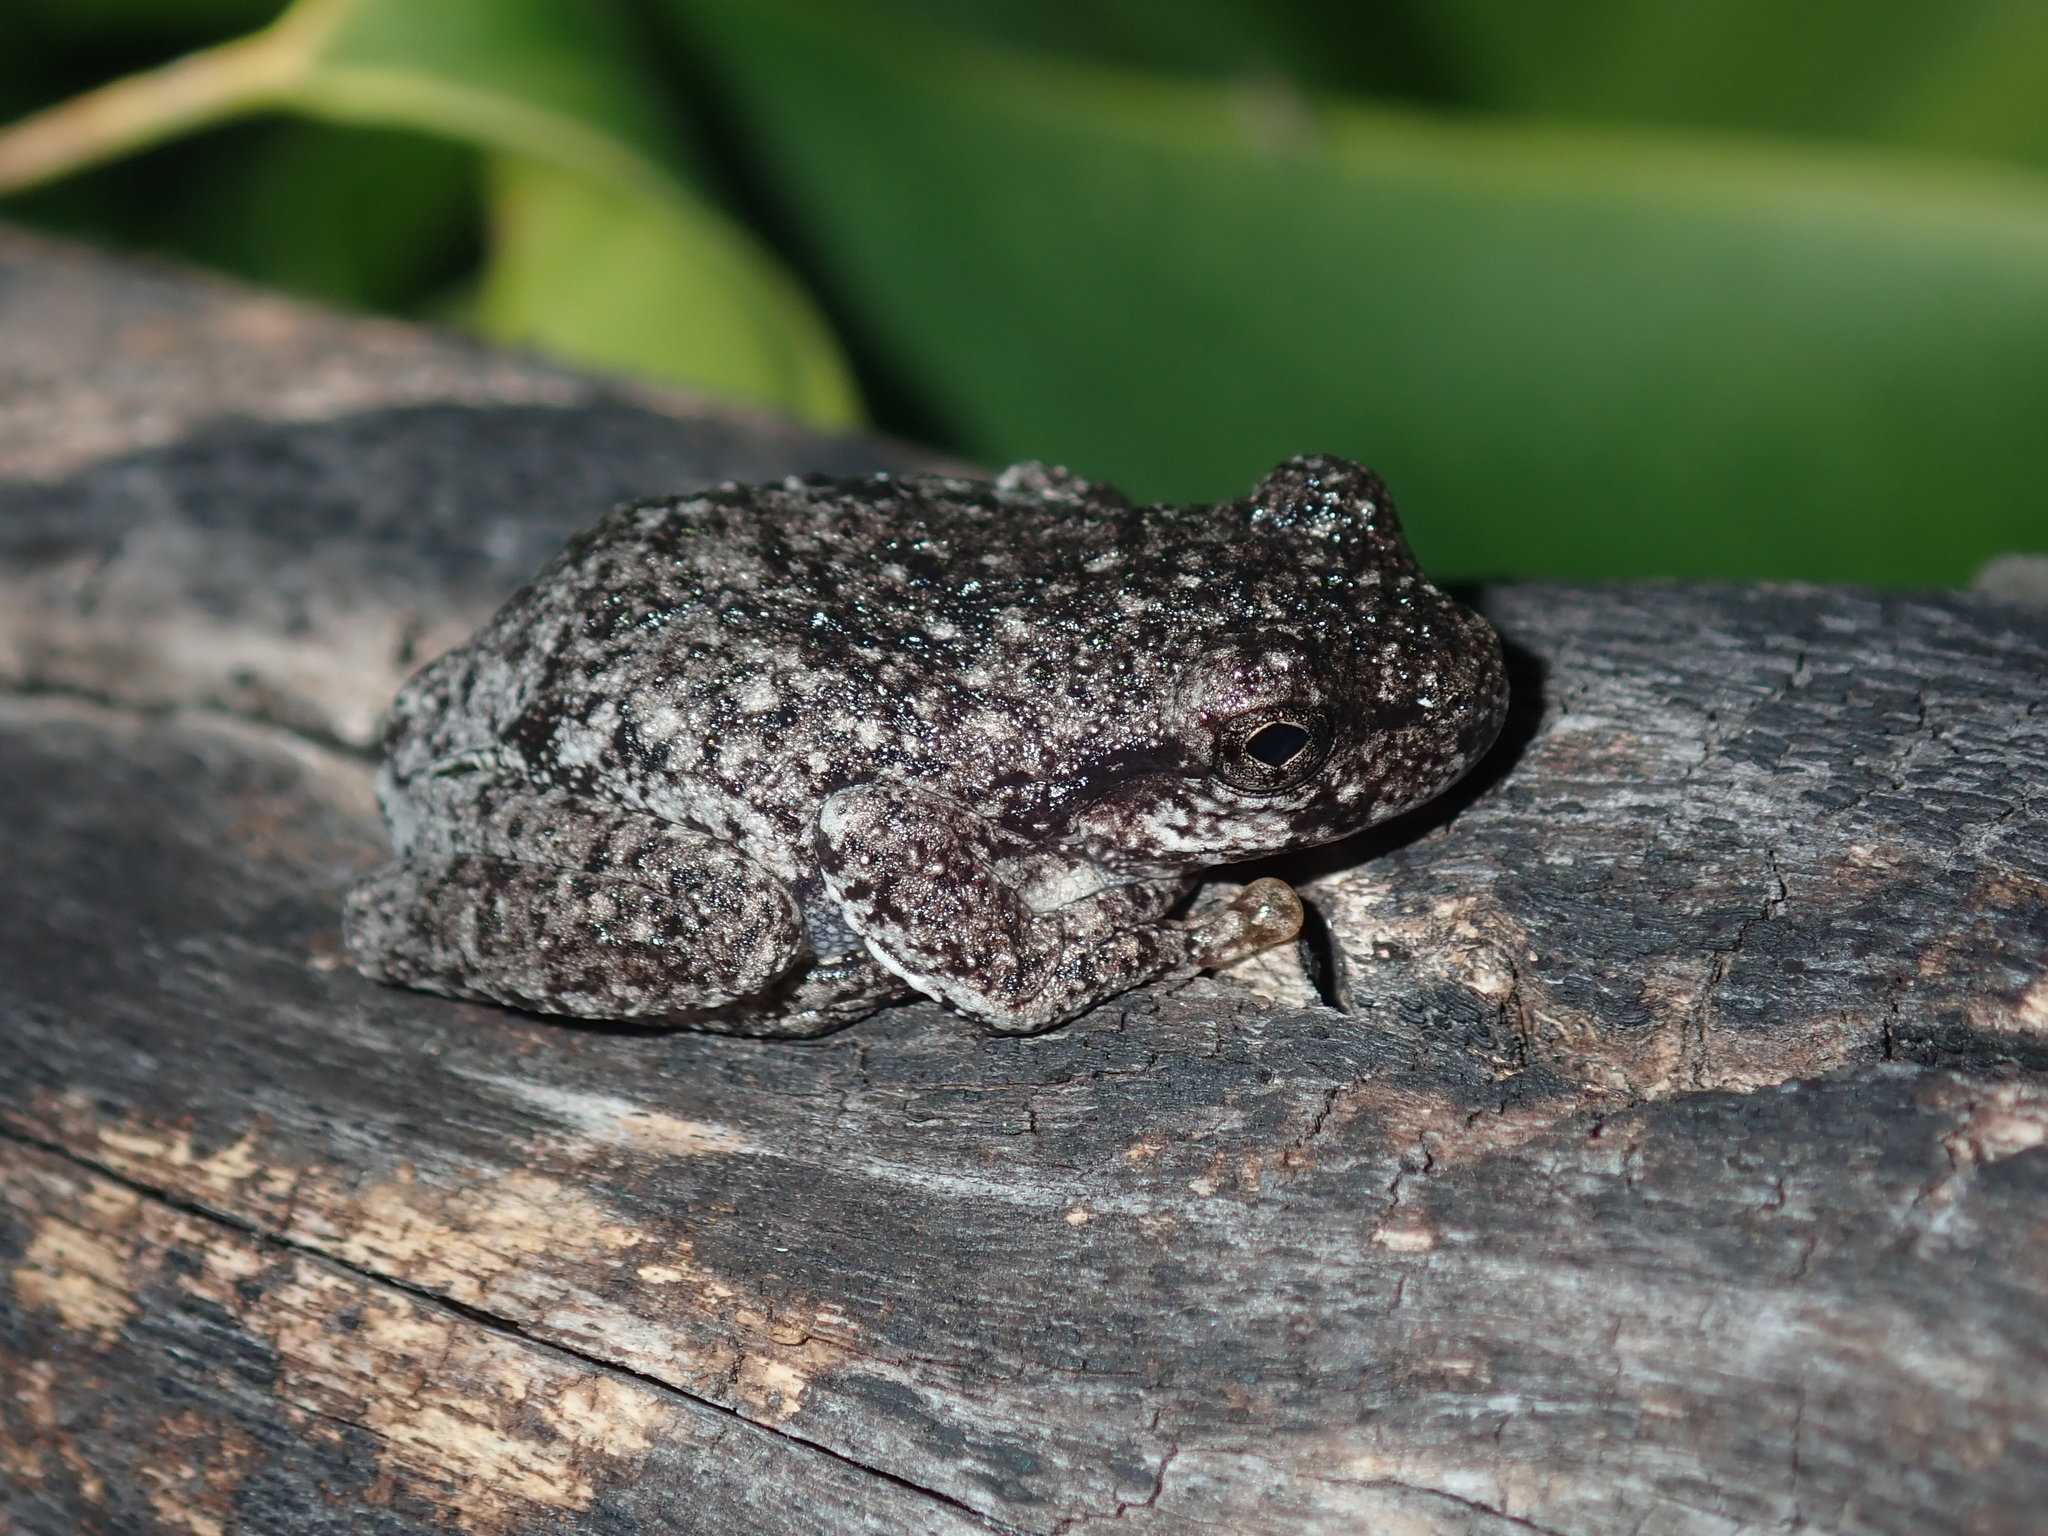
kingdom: Animalia
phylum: Chordata
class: Amphibia
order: Anura
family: Pelodryadidae
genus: Litoria
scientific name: Litoria peronii
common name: Emerald spotted treefrog
